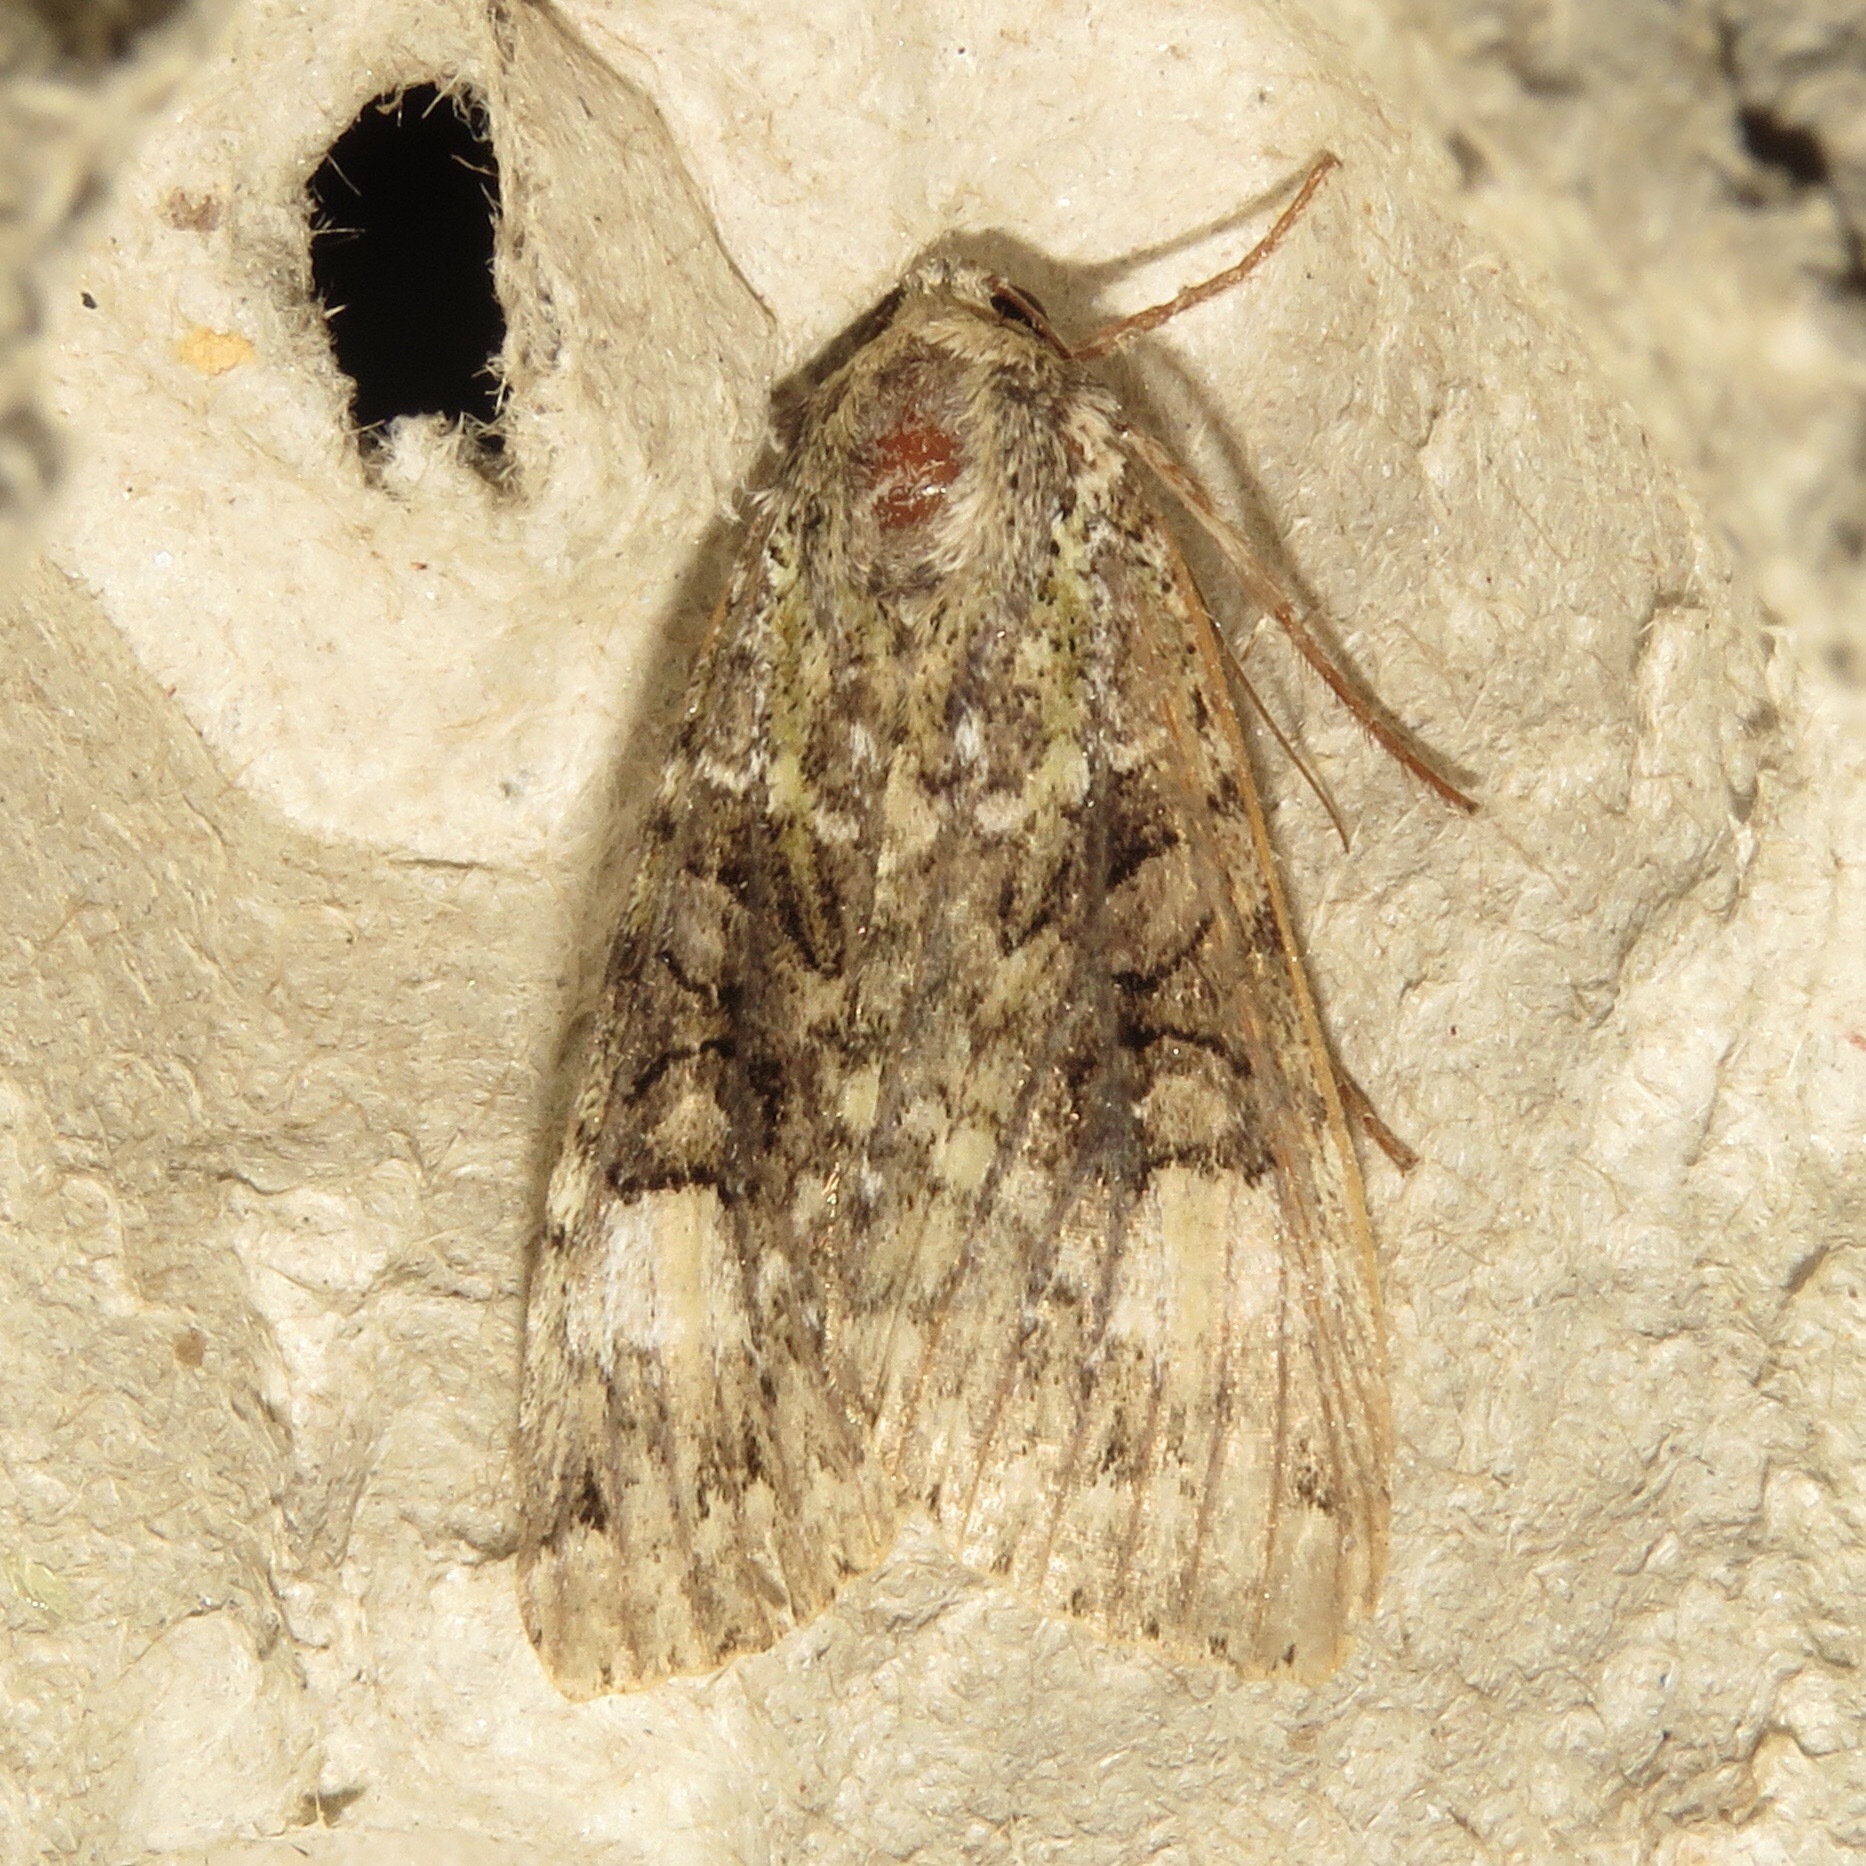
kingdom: Animalia
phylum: Arthropoda
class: Insecta
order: Lepidoptera
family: Noctuidae
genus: Anaplectoides
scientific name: Anaplectoides prasina
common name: Green arches
